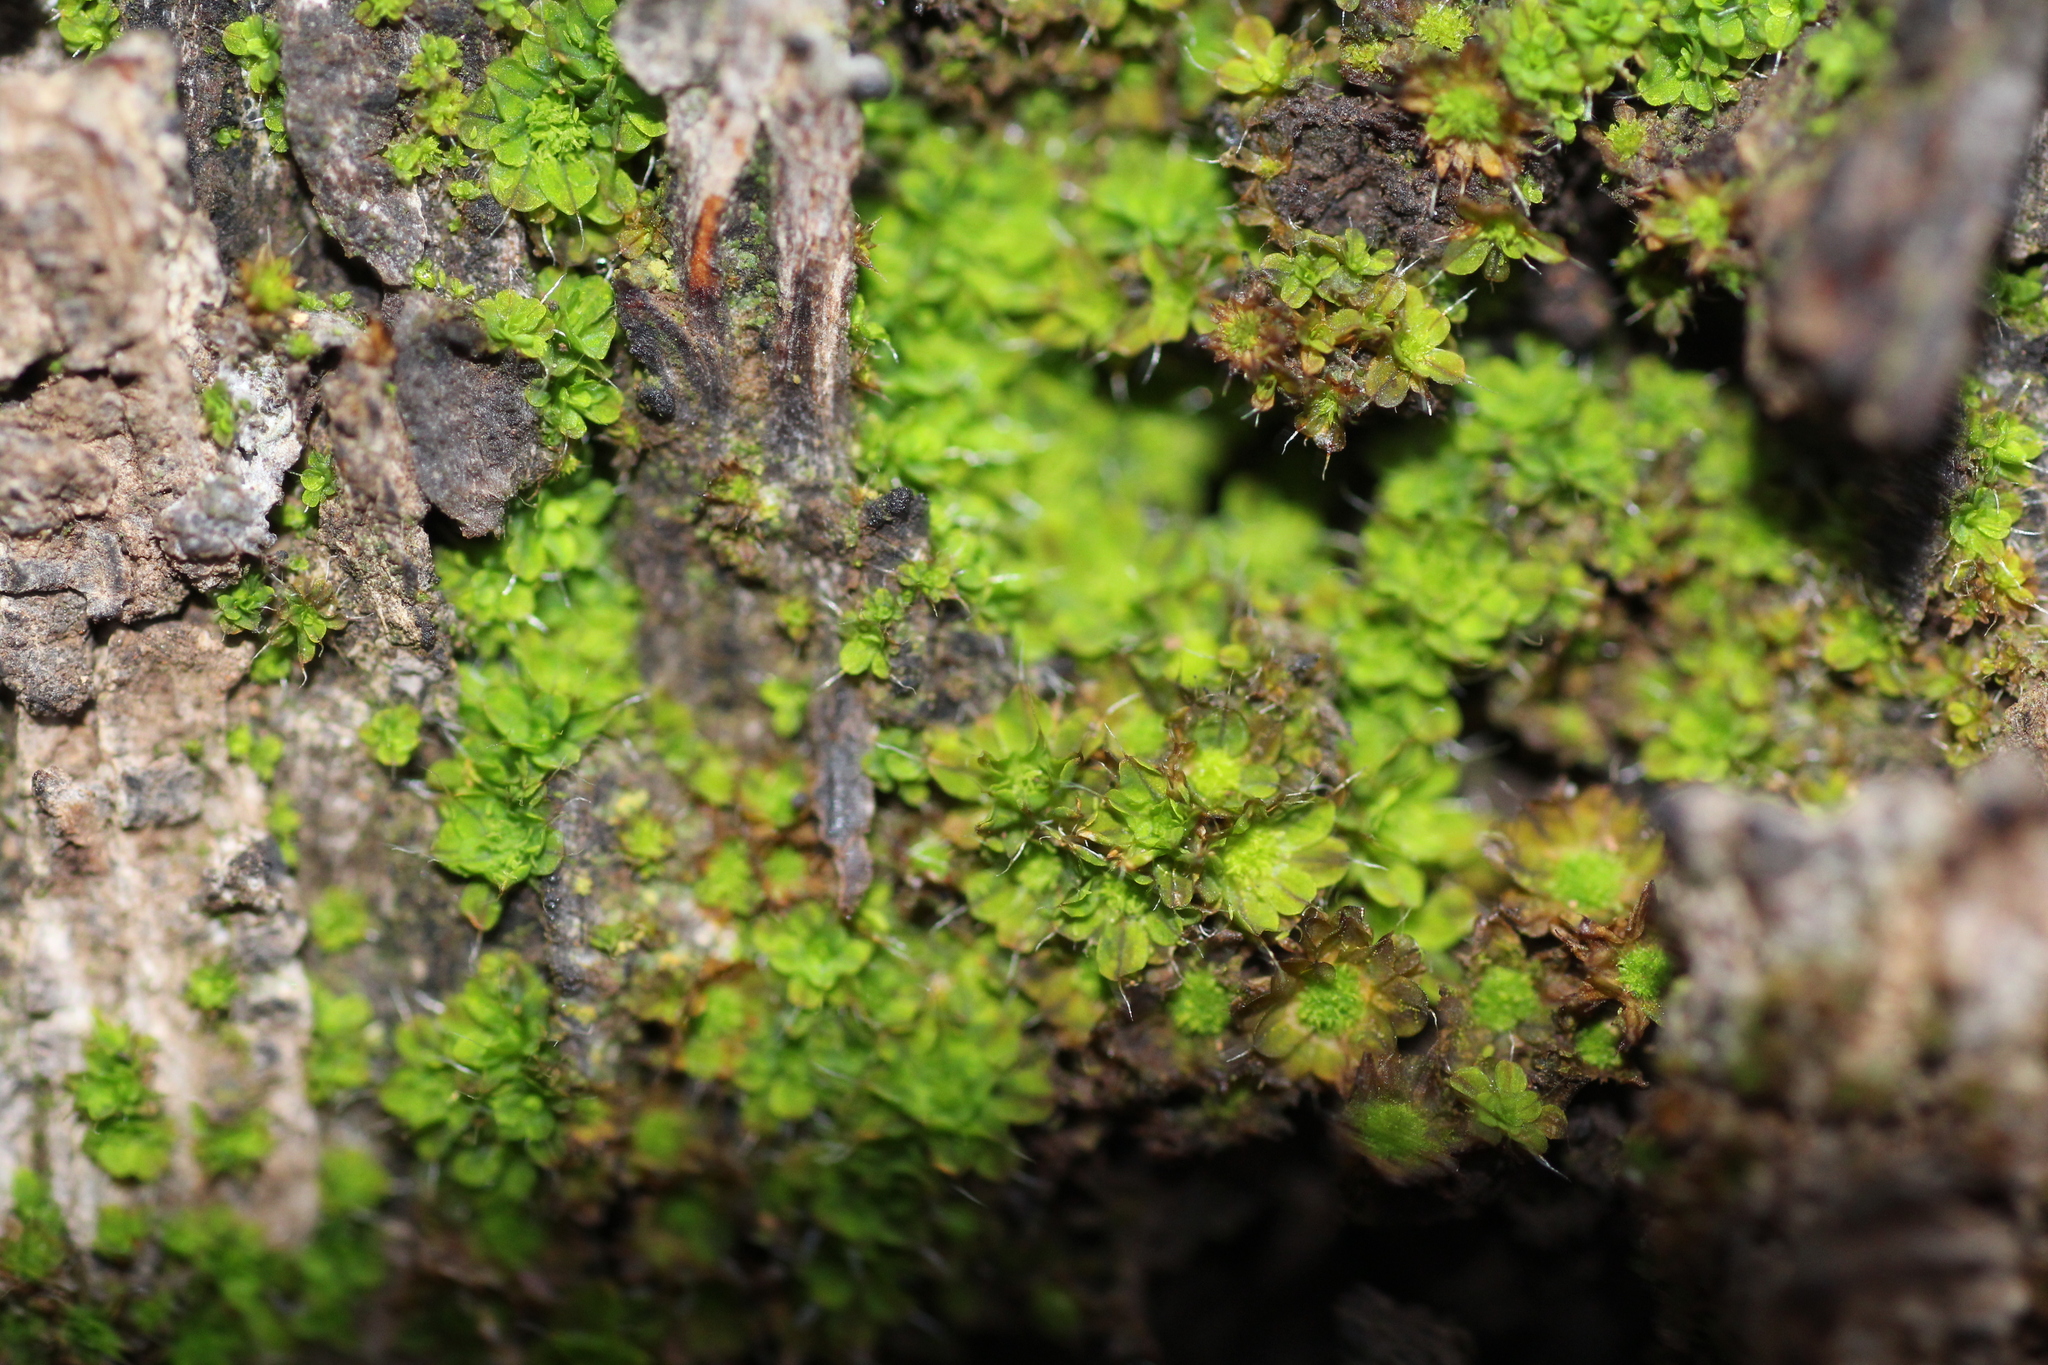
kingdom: Plantae
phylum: Bryophyta
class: Bryopsida
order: Pottiales
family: Pottiaceae
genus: Syntrichia
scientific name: Syntrichia pagorum
